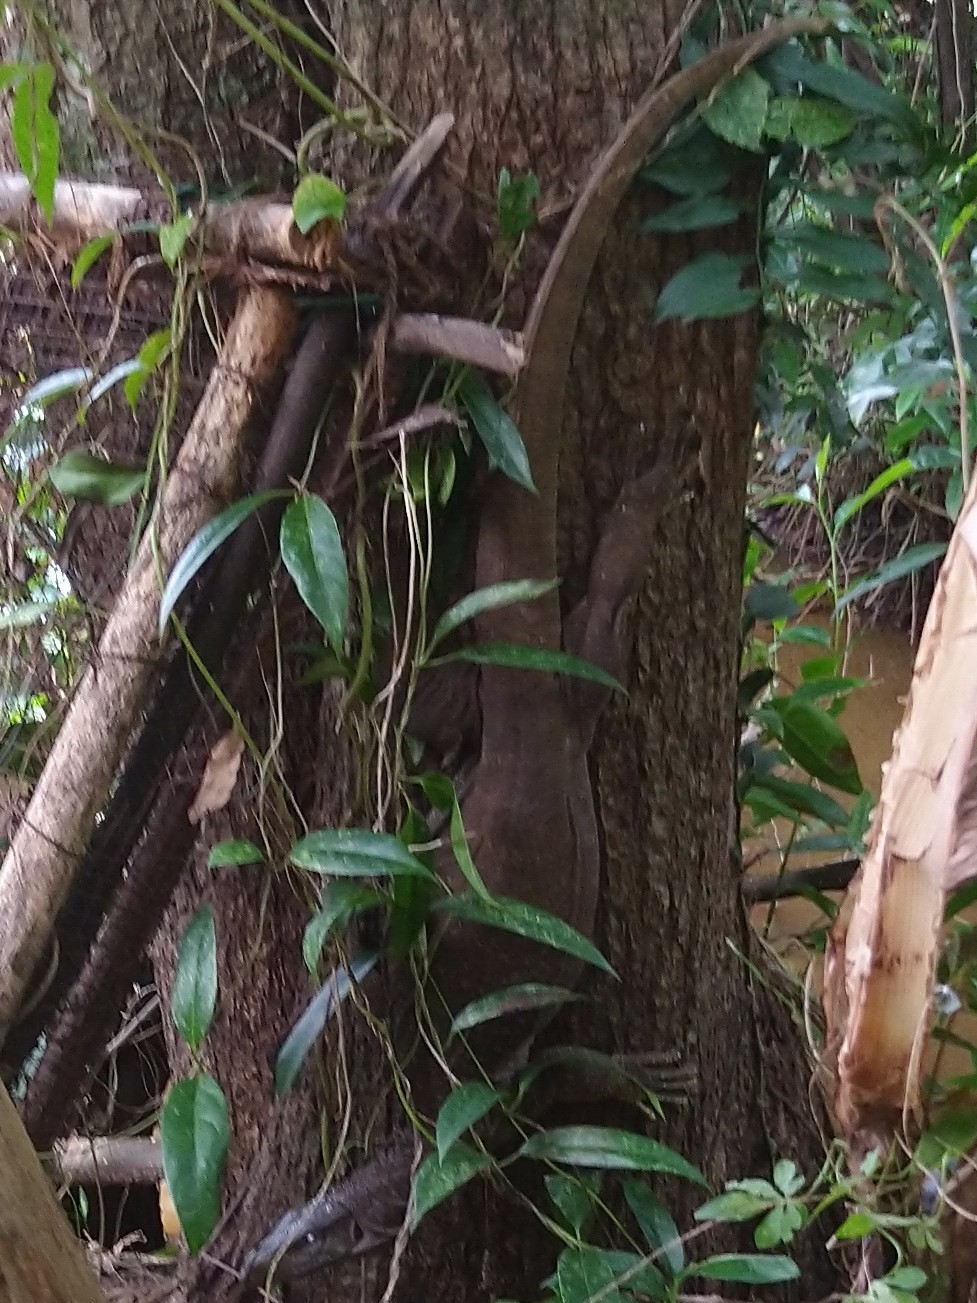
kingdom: Animalia
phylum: Chordata
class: Squamata
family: Varanidae
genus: Varanus
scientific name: Varanus bengalensis
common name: Bengal monitor
